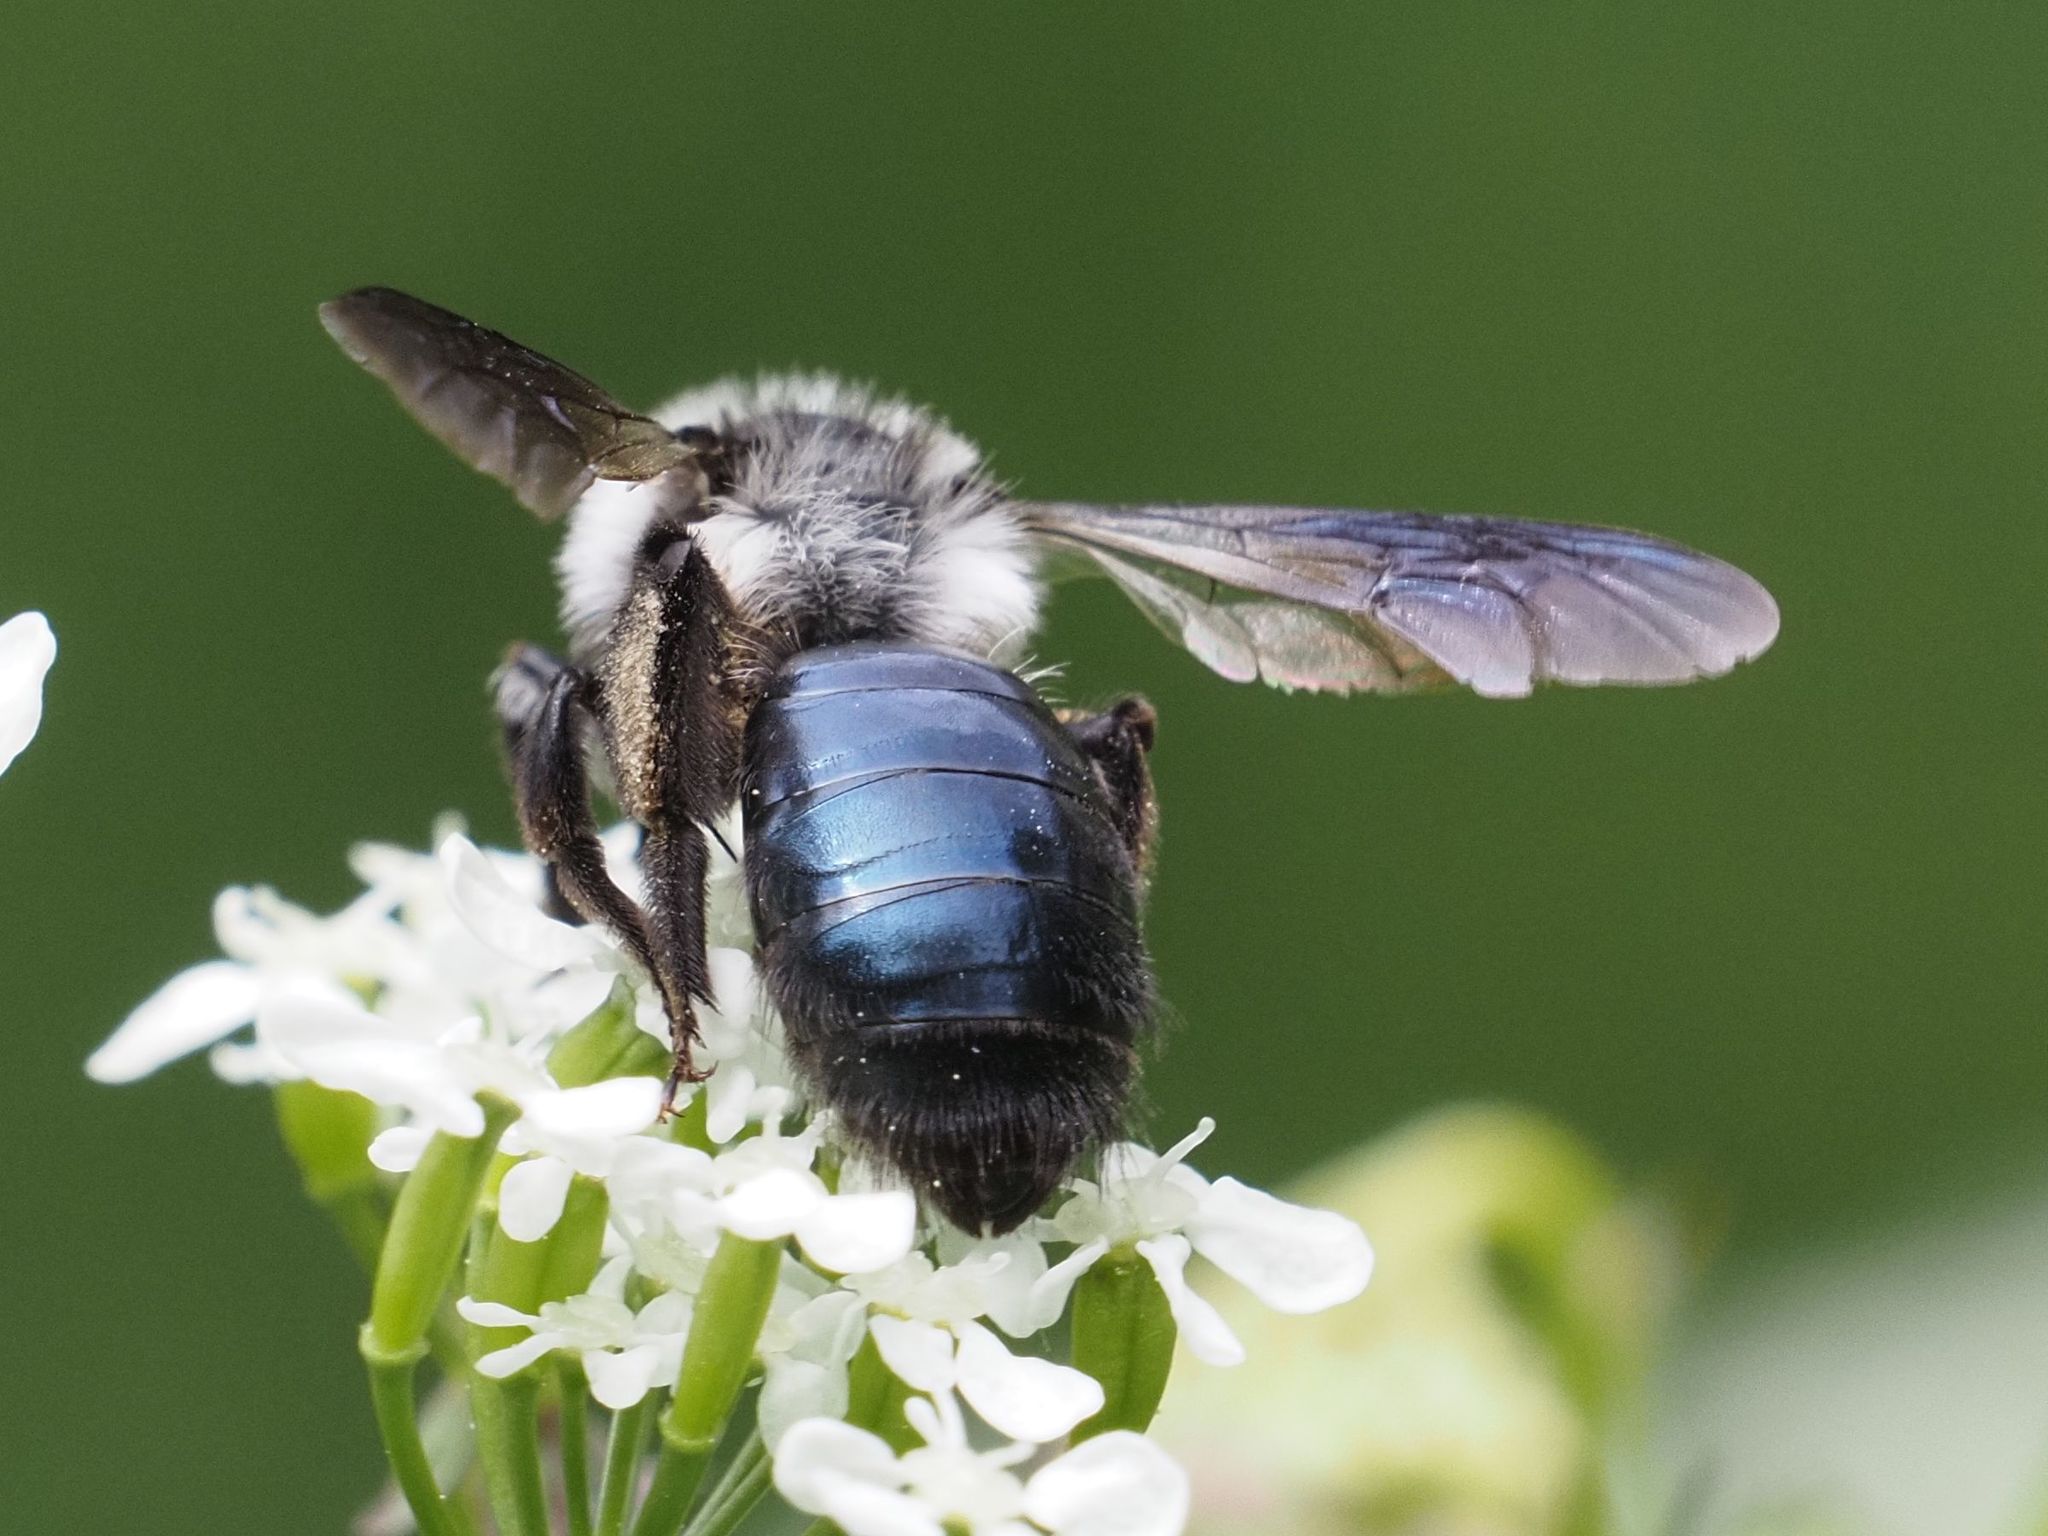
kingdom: Animalia
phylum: Arthropoda
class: Insecta
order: Hymenoptera
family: Andrenidae
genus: Andrena
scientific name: Andrena cineraria
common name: Ashy mining bee
